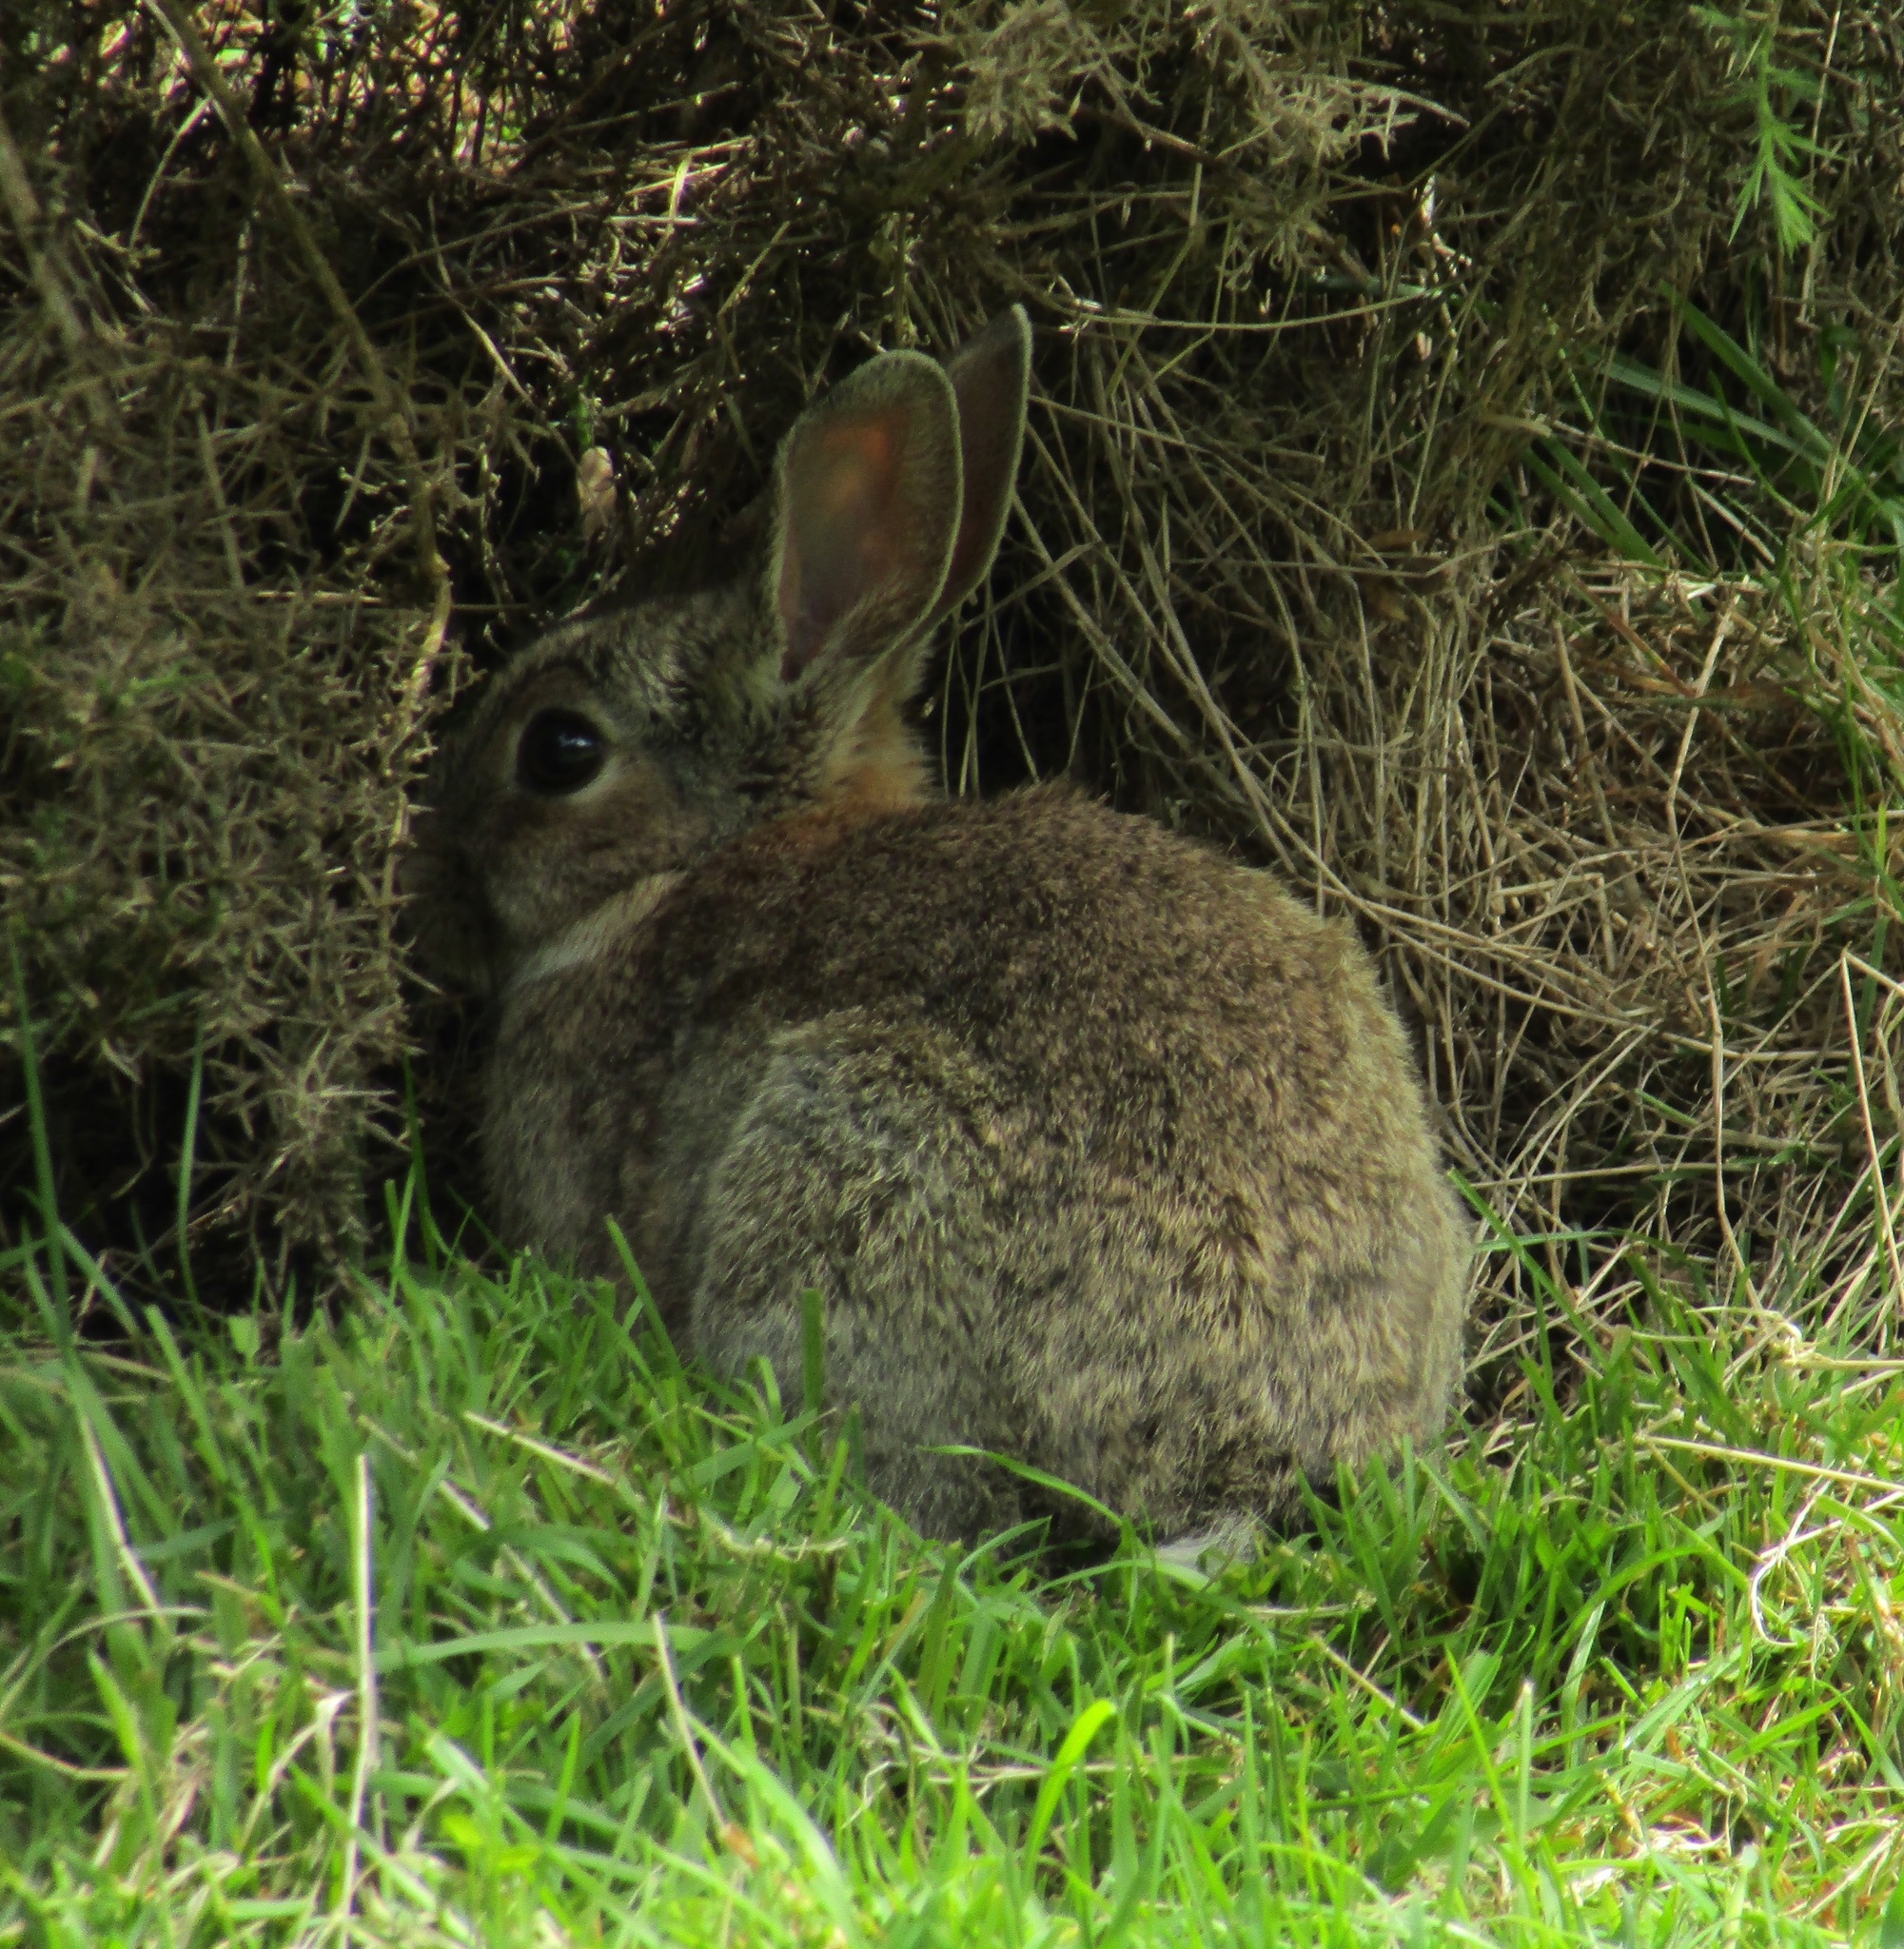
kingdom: Animalia
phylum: Chordata
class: Mammalia
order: Lagomorpha
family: Leporidae
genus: Oryctolagus
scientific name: Oryctolagus cuniculus
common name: European rabbit
